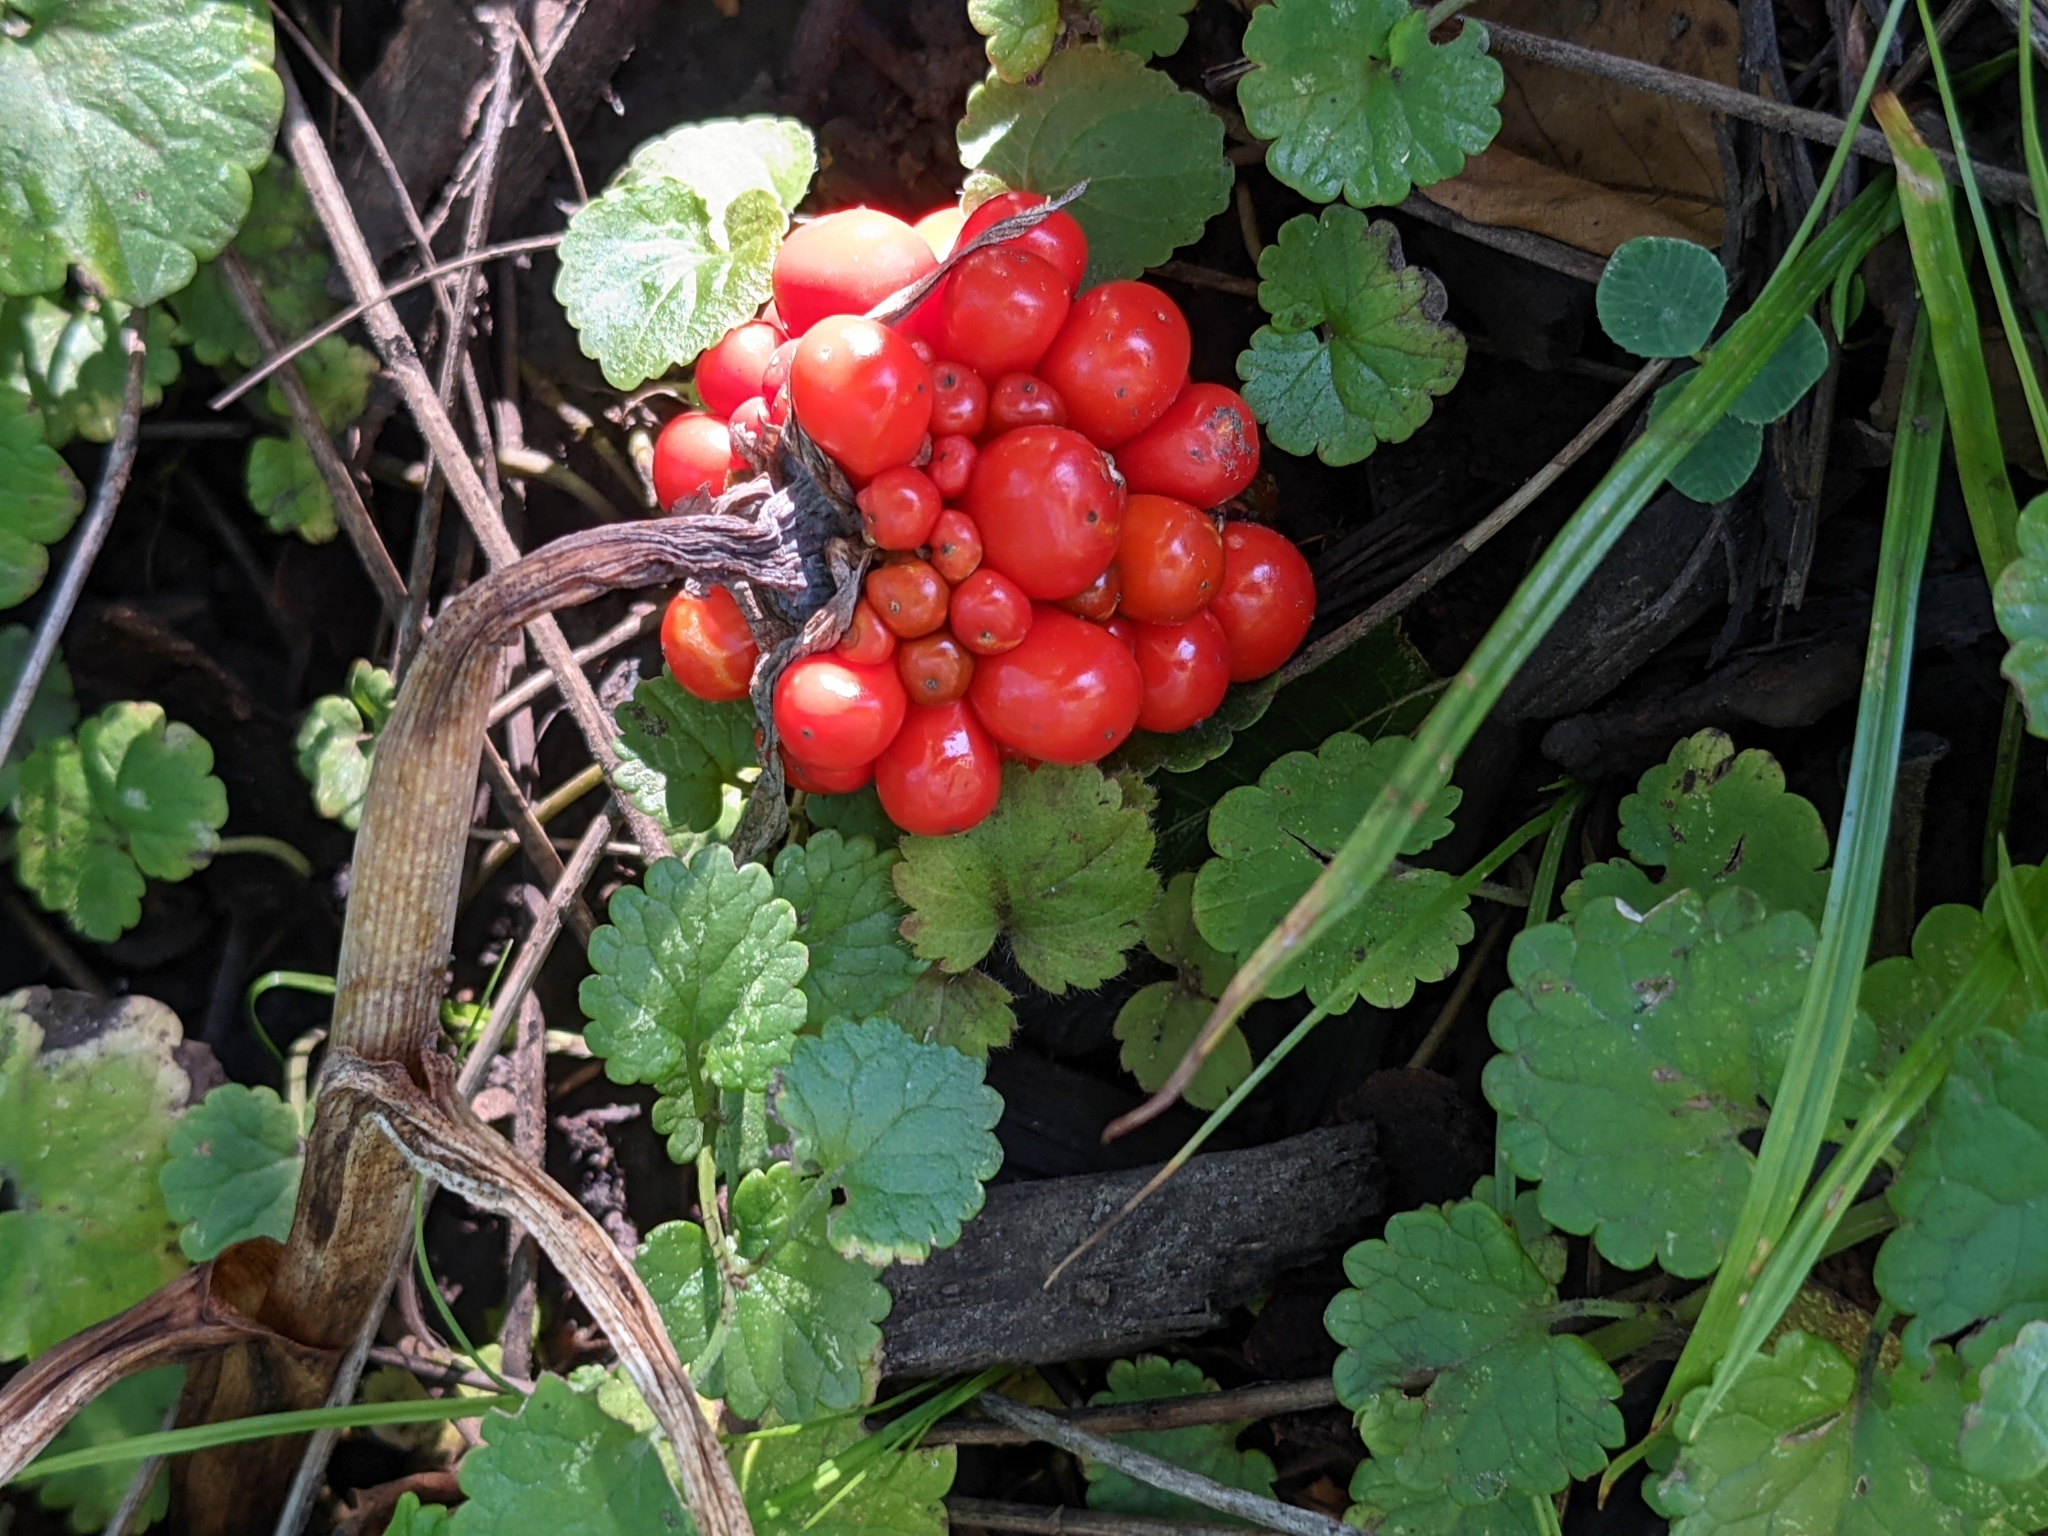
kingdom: Plantae
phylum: Tracheophyta
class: Liliopsida
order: Alismatales
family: Araceae
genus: Arisaema
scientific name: Arisaema triphyllum
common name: Jack-in-the-pulpit
